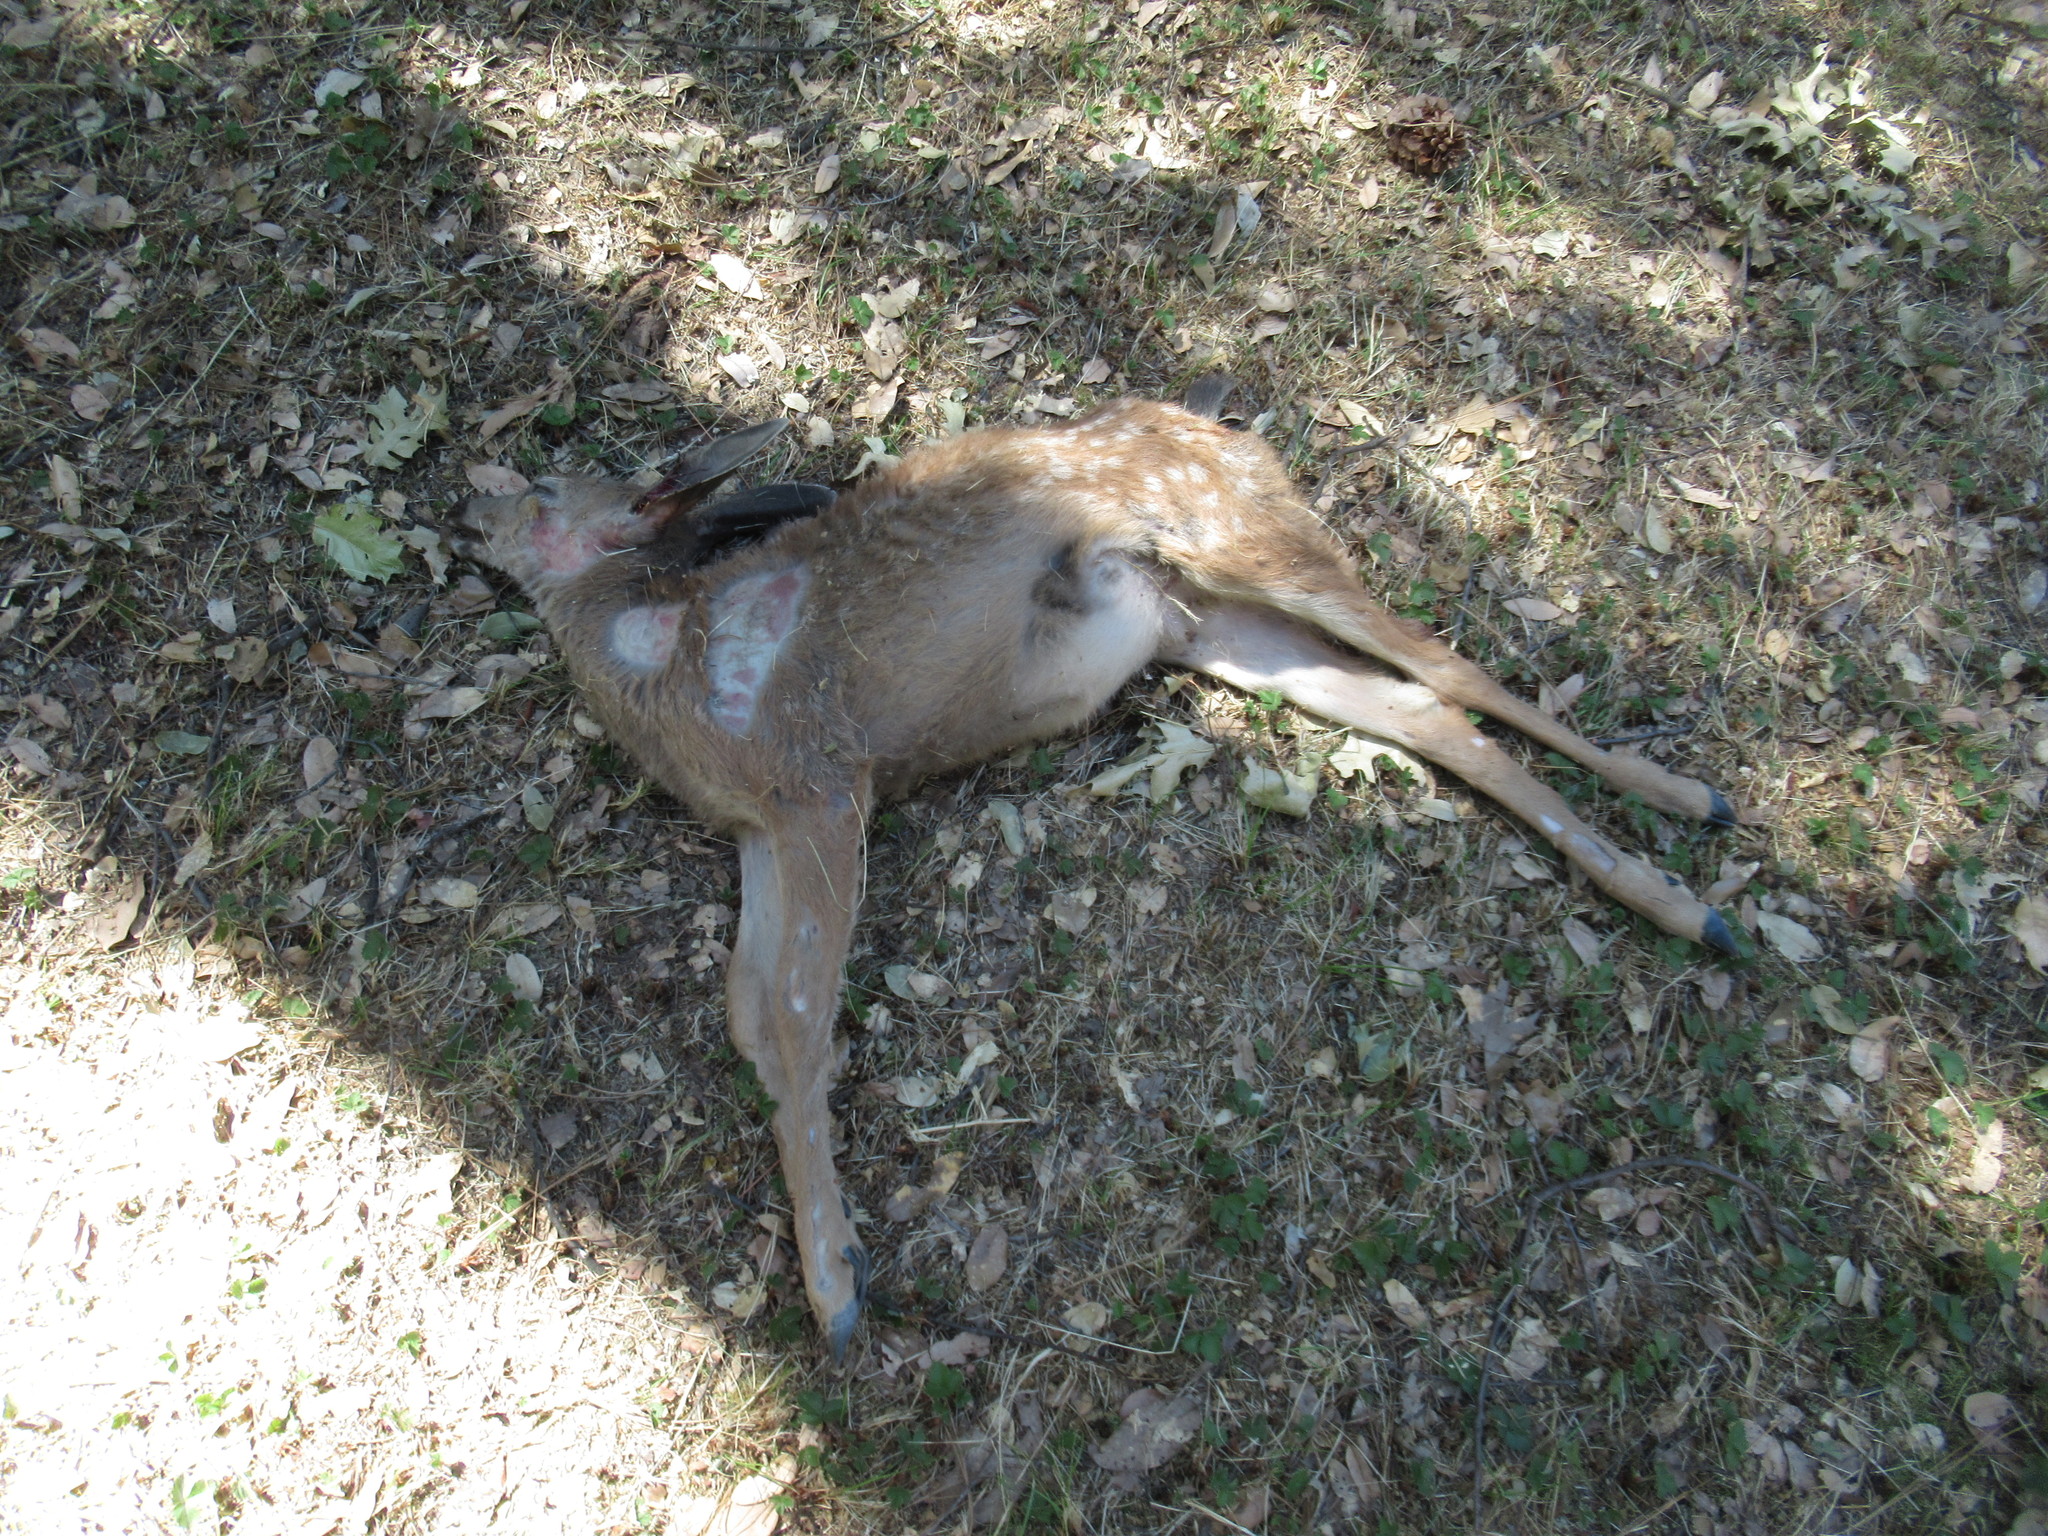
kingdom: Animalia
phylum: Chordata
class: Mammalia
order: Artiodactyla
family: Cervidae
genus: Odocoileus
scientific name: Odocoileus hemionus
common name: Mule deer
